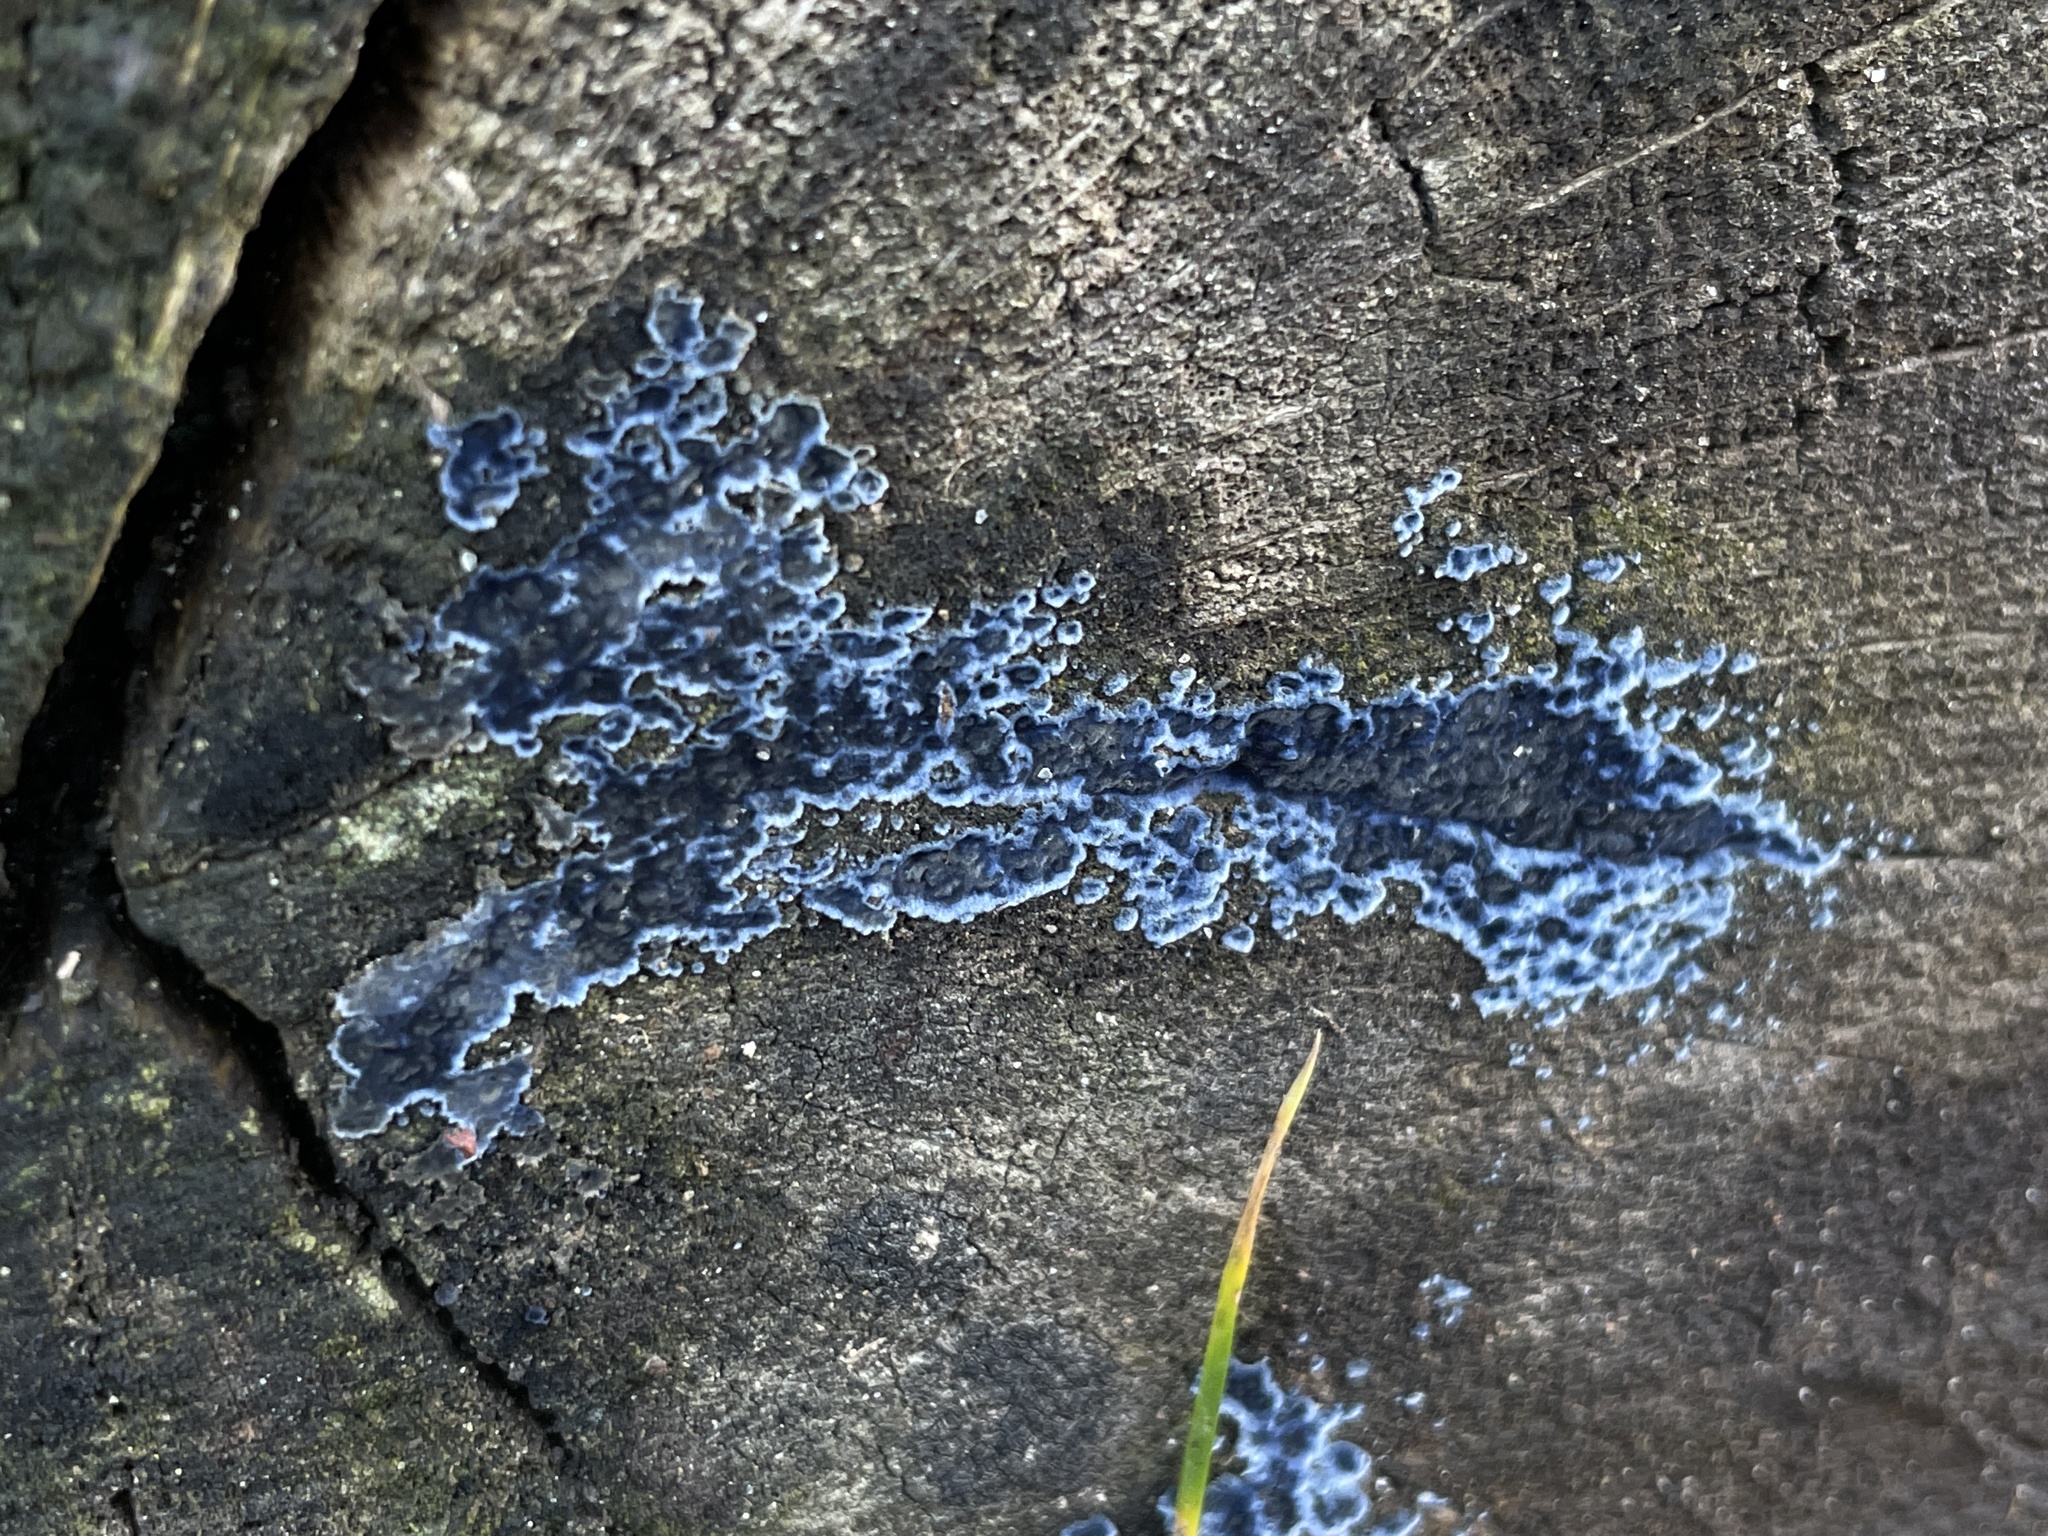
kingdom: Fungi
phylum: Basidiomycota
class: Agaricomycetes
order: Polyporales
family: Phanerochaetaceae
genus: Terana
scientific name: Terana coerulea
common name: Cobalt crust
